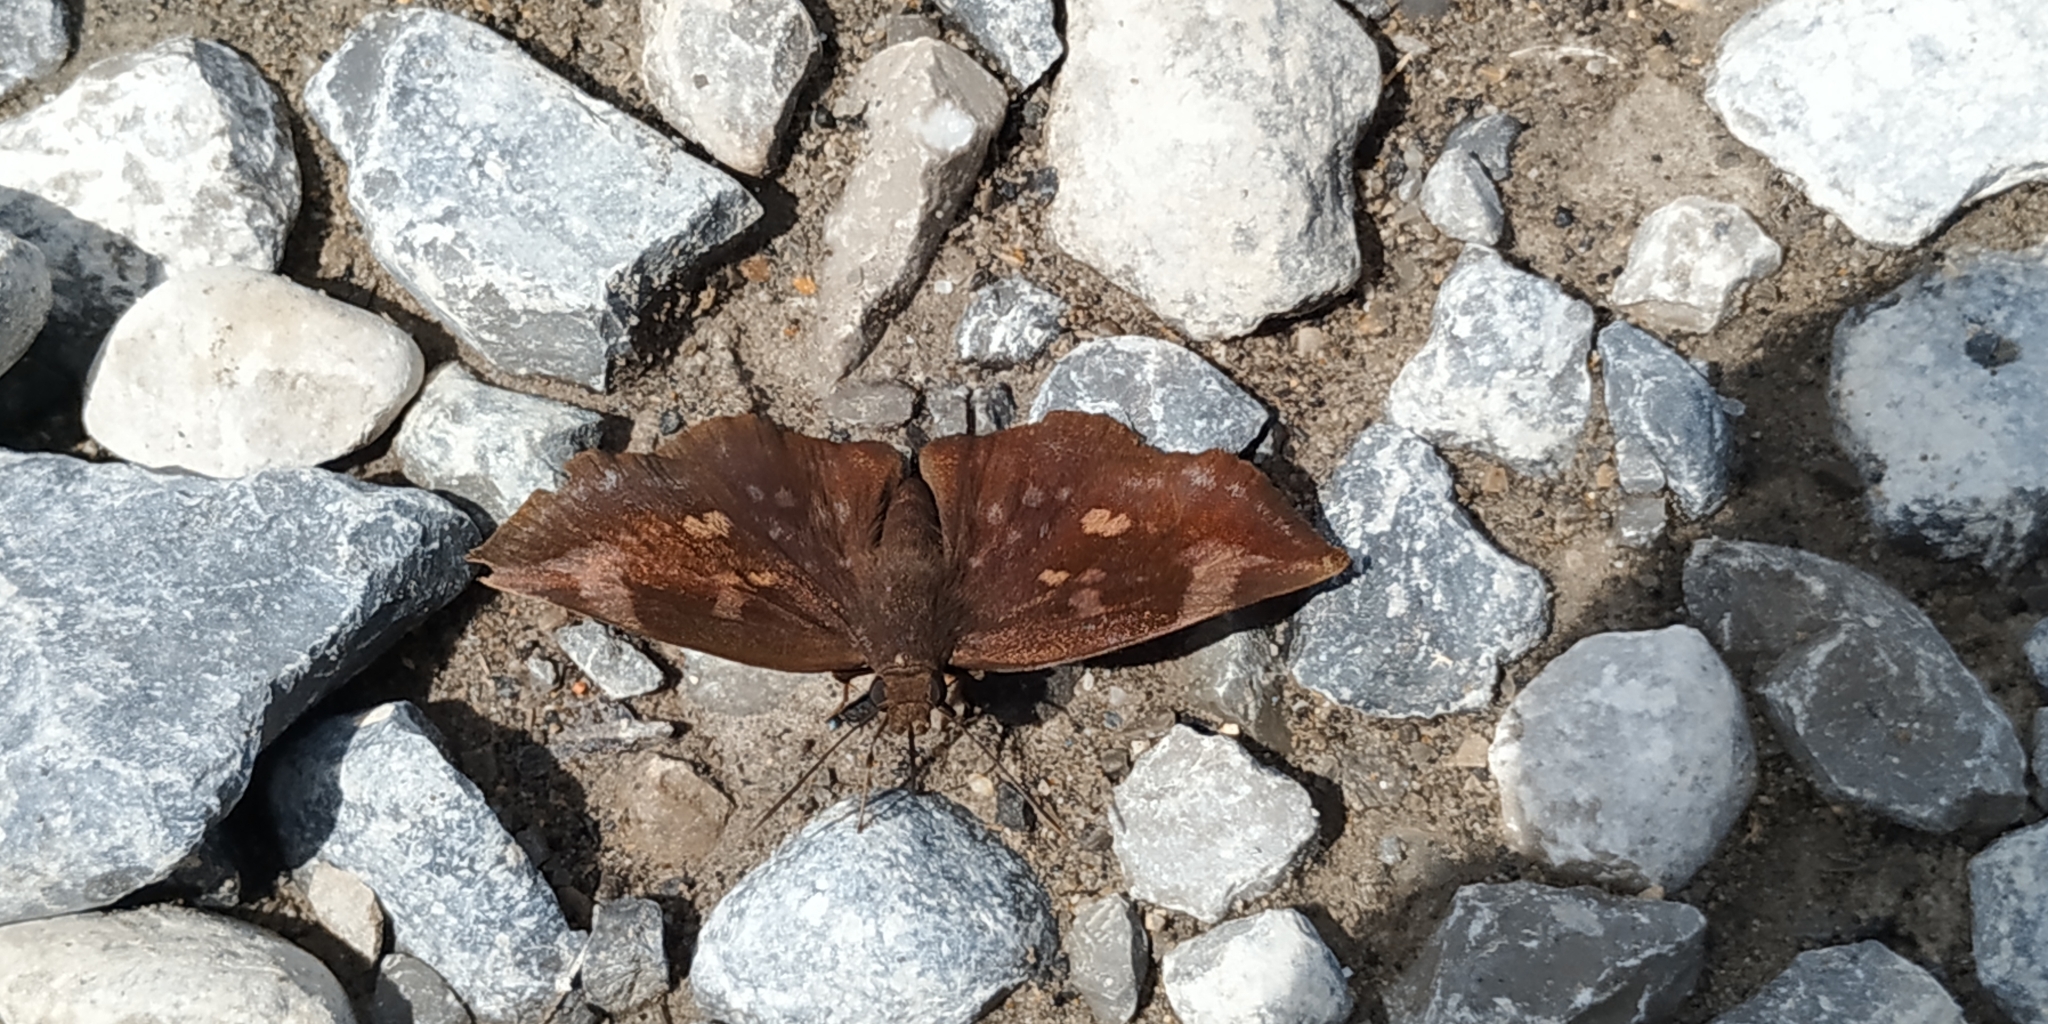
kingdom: Animalia
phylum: Arthropoda
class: Insecta
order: Lepidoptera
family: Hesperiidae
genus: Achlyodes
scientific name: Achlyodes thraso
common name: Sickle-winged skipper
